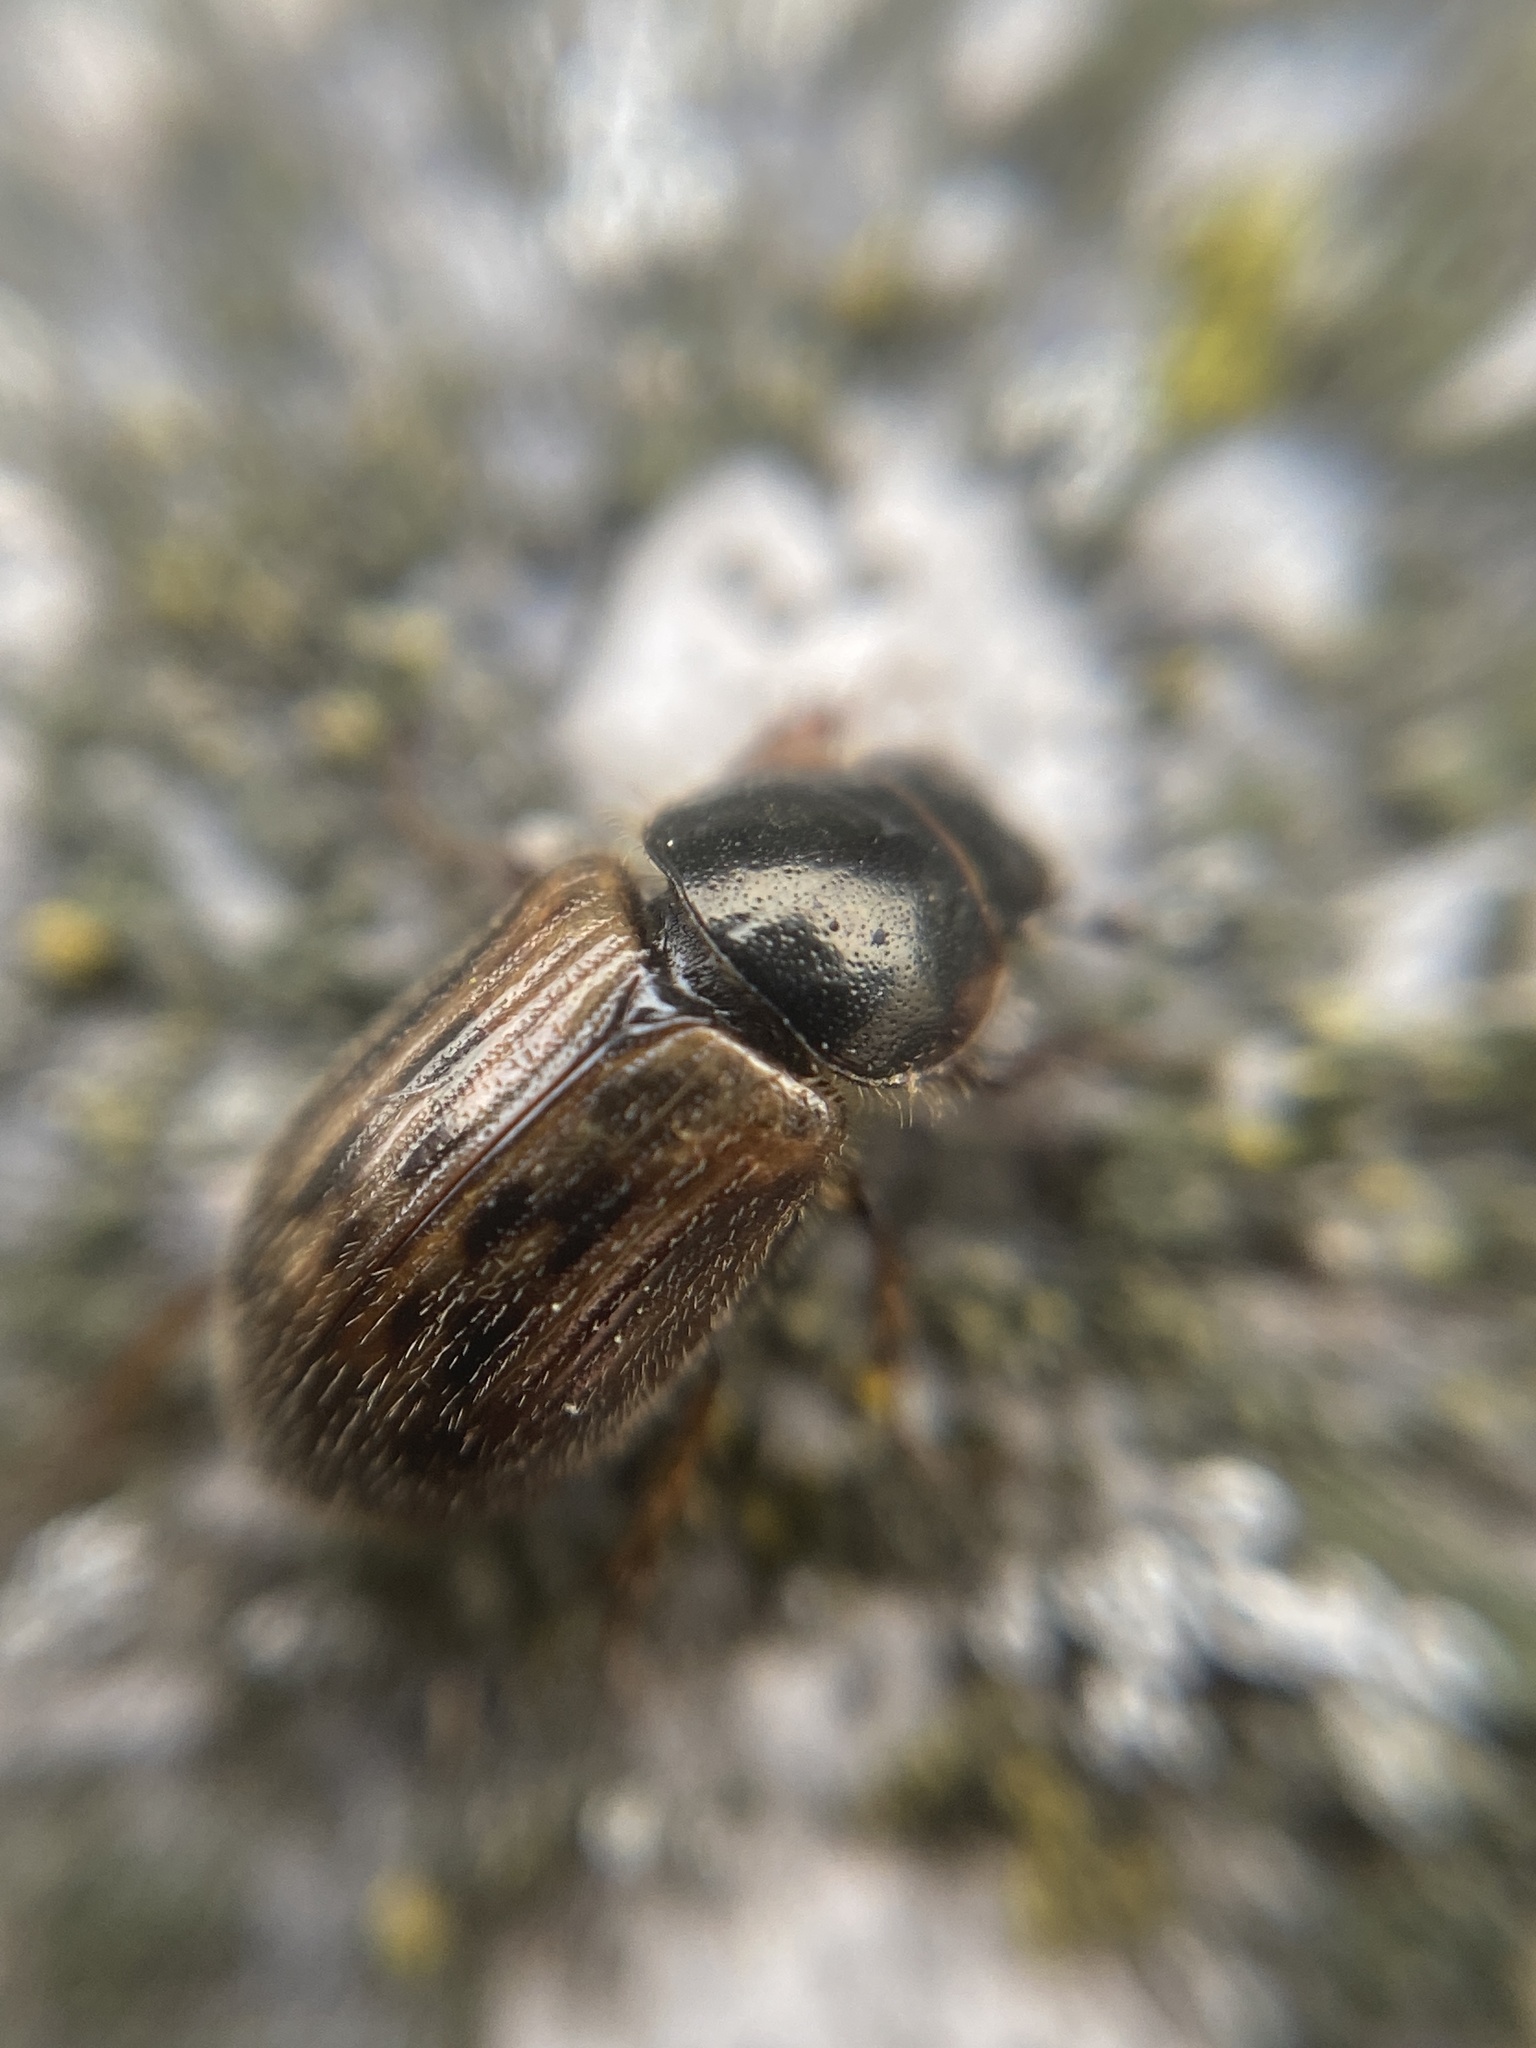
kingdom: Animalia
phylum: Arthropoda
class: Insecta
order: Coleoptera
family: Scarabaeidae
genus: Nimbus
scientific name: Nimbus contaminatus
